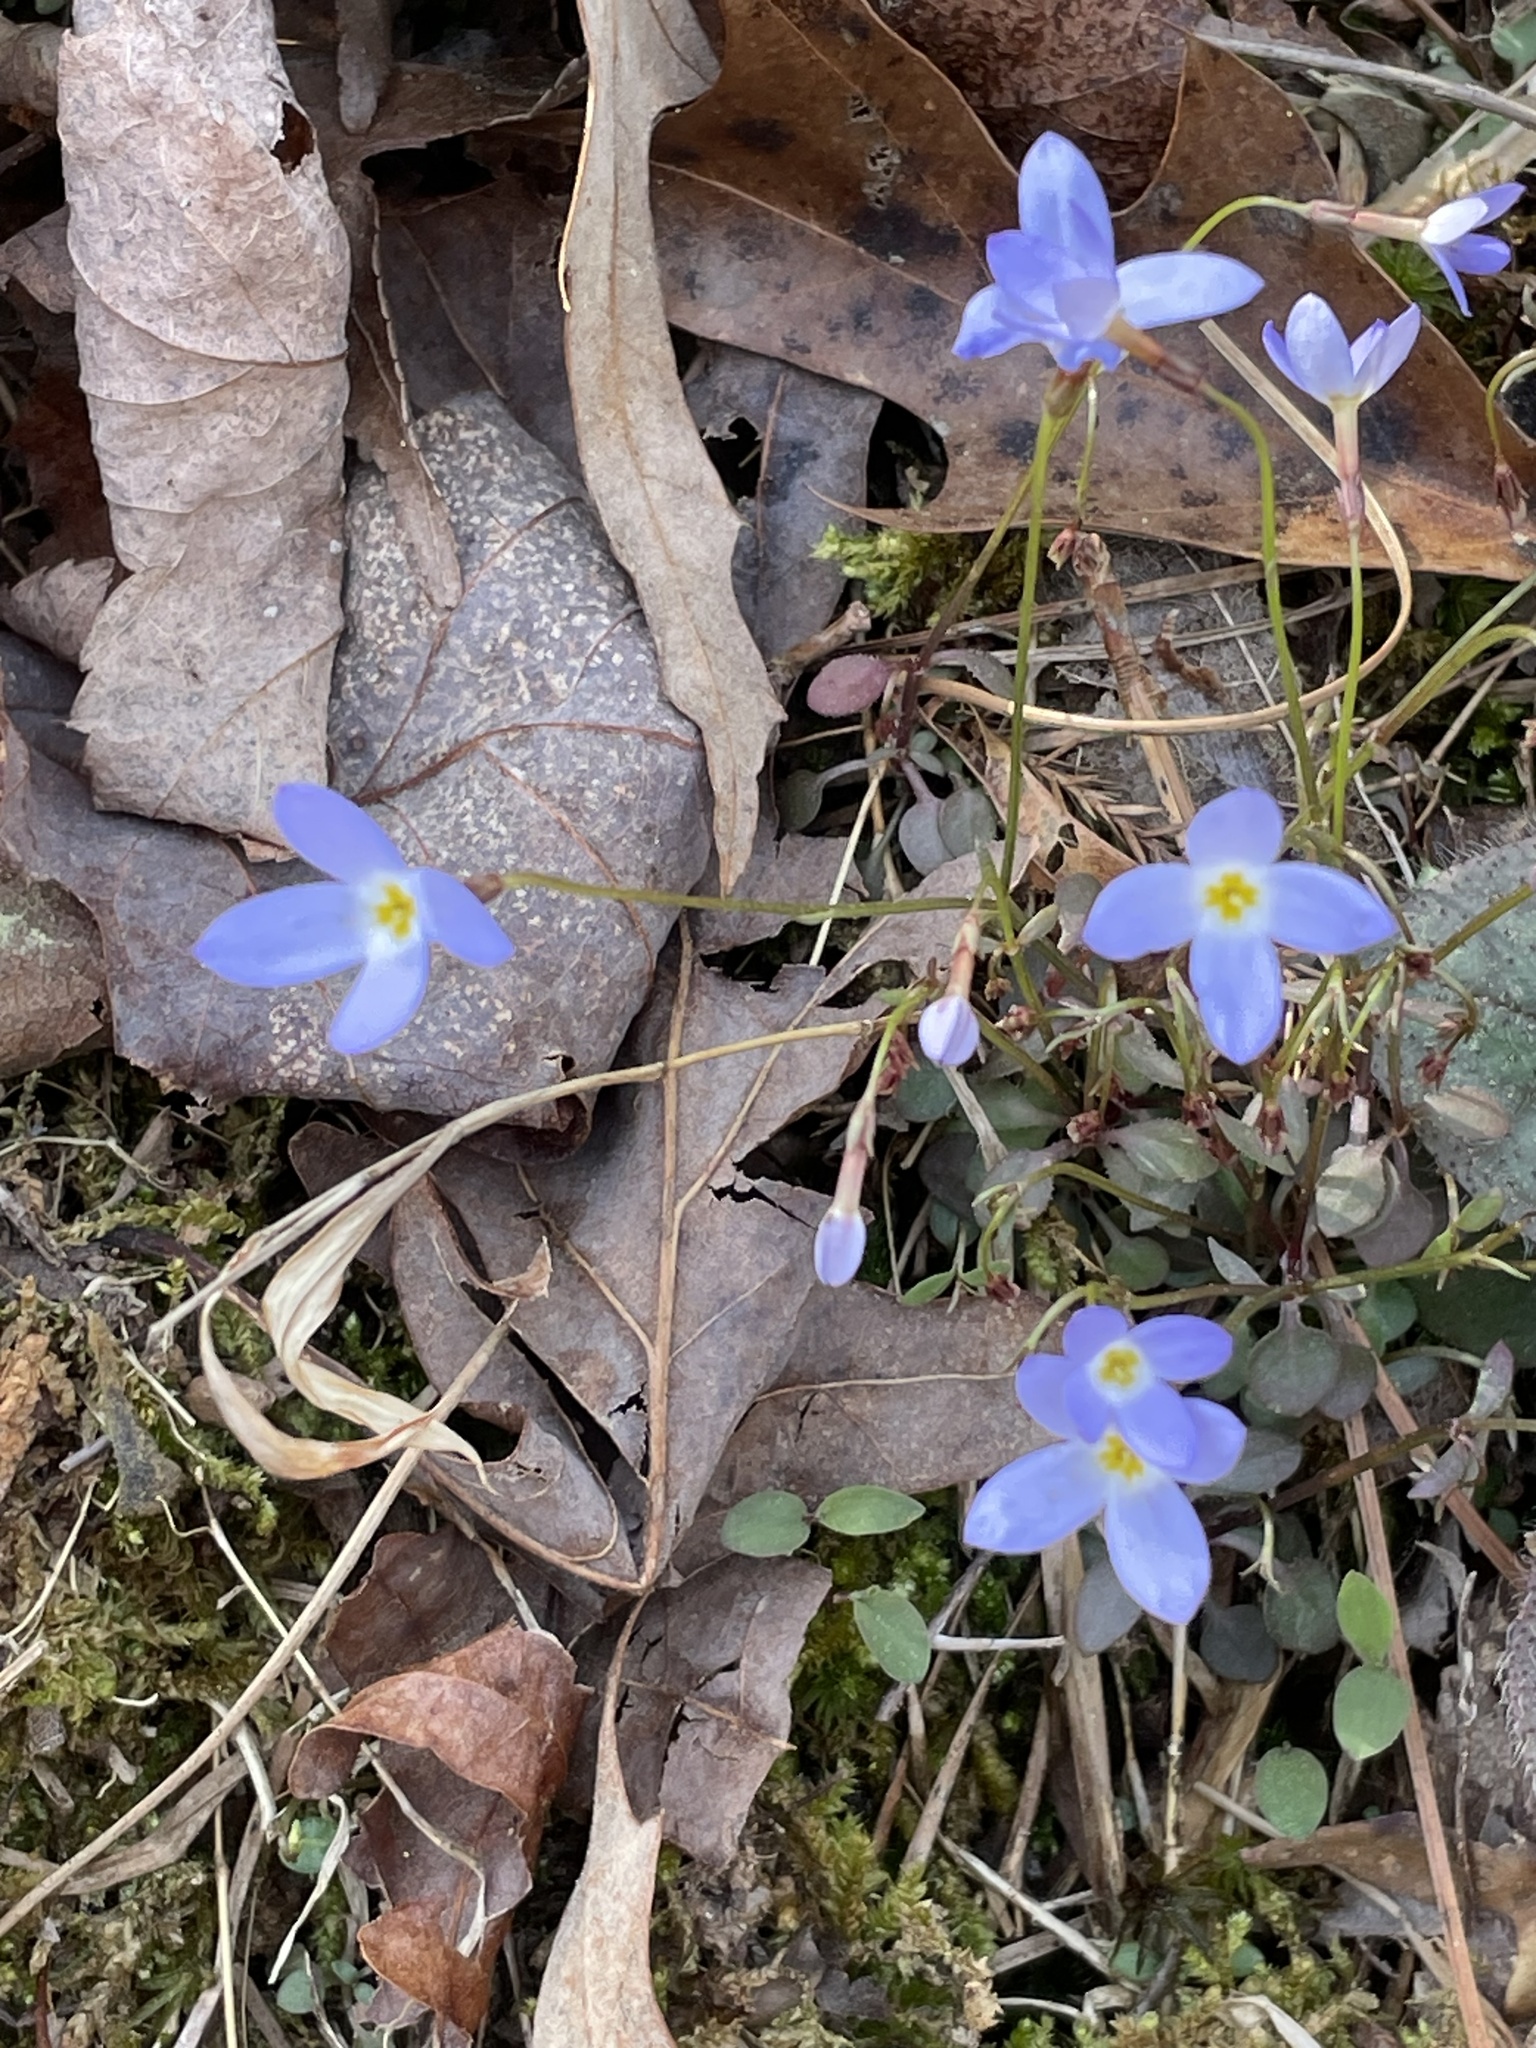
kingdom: Plantae
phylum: Tracheophyta
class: Magnoliopsida
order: Gentianales
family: Rubiaceae
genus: Houstonia
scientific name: Houstonia caerulea
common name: Bluets
